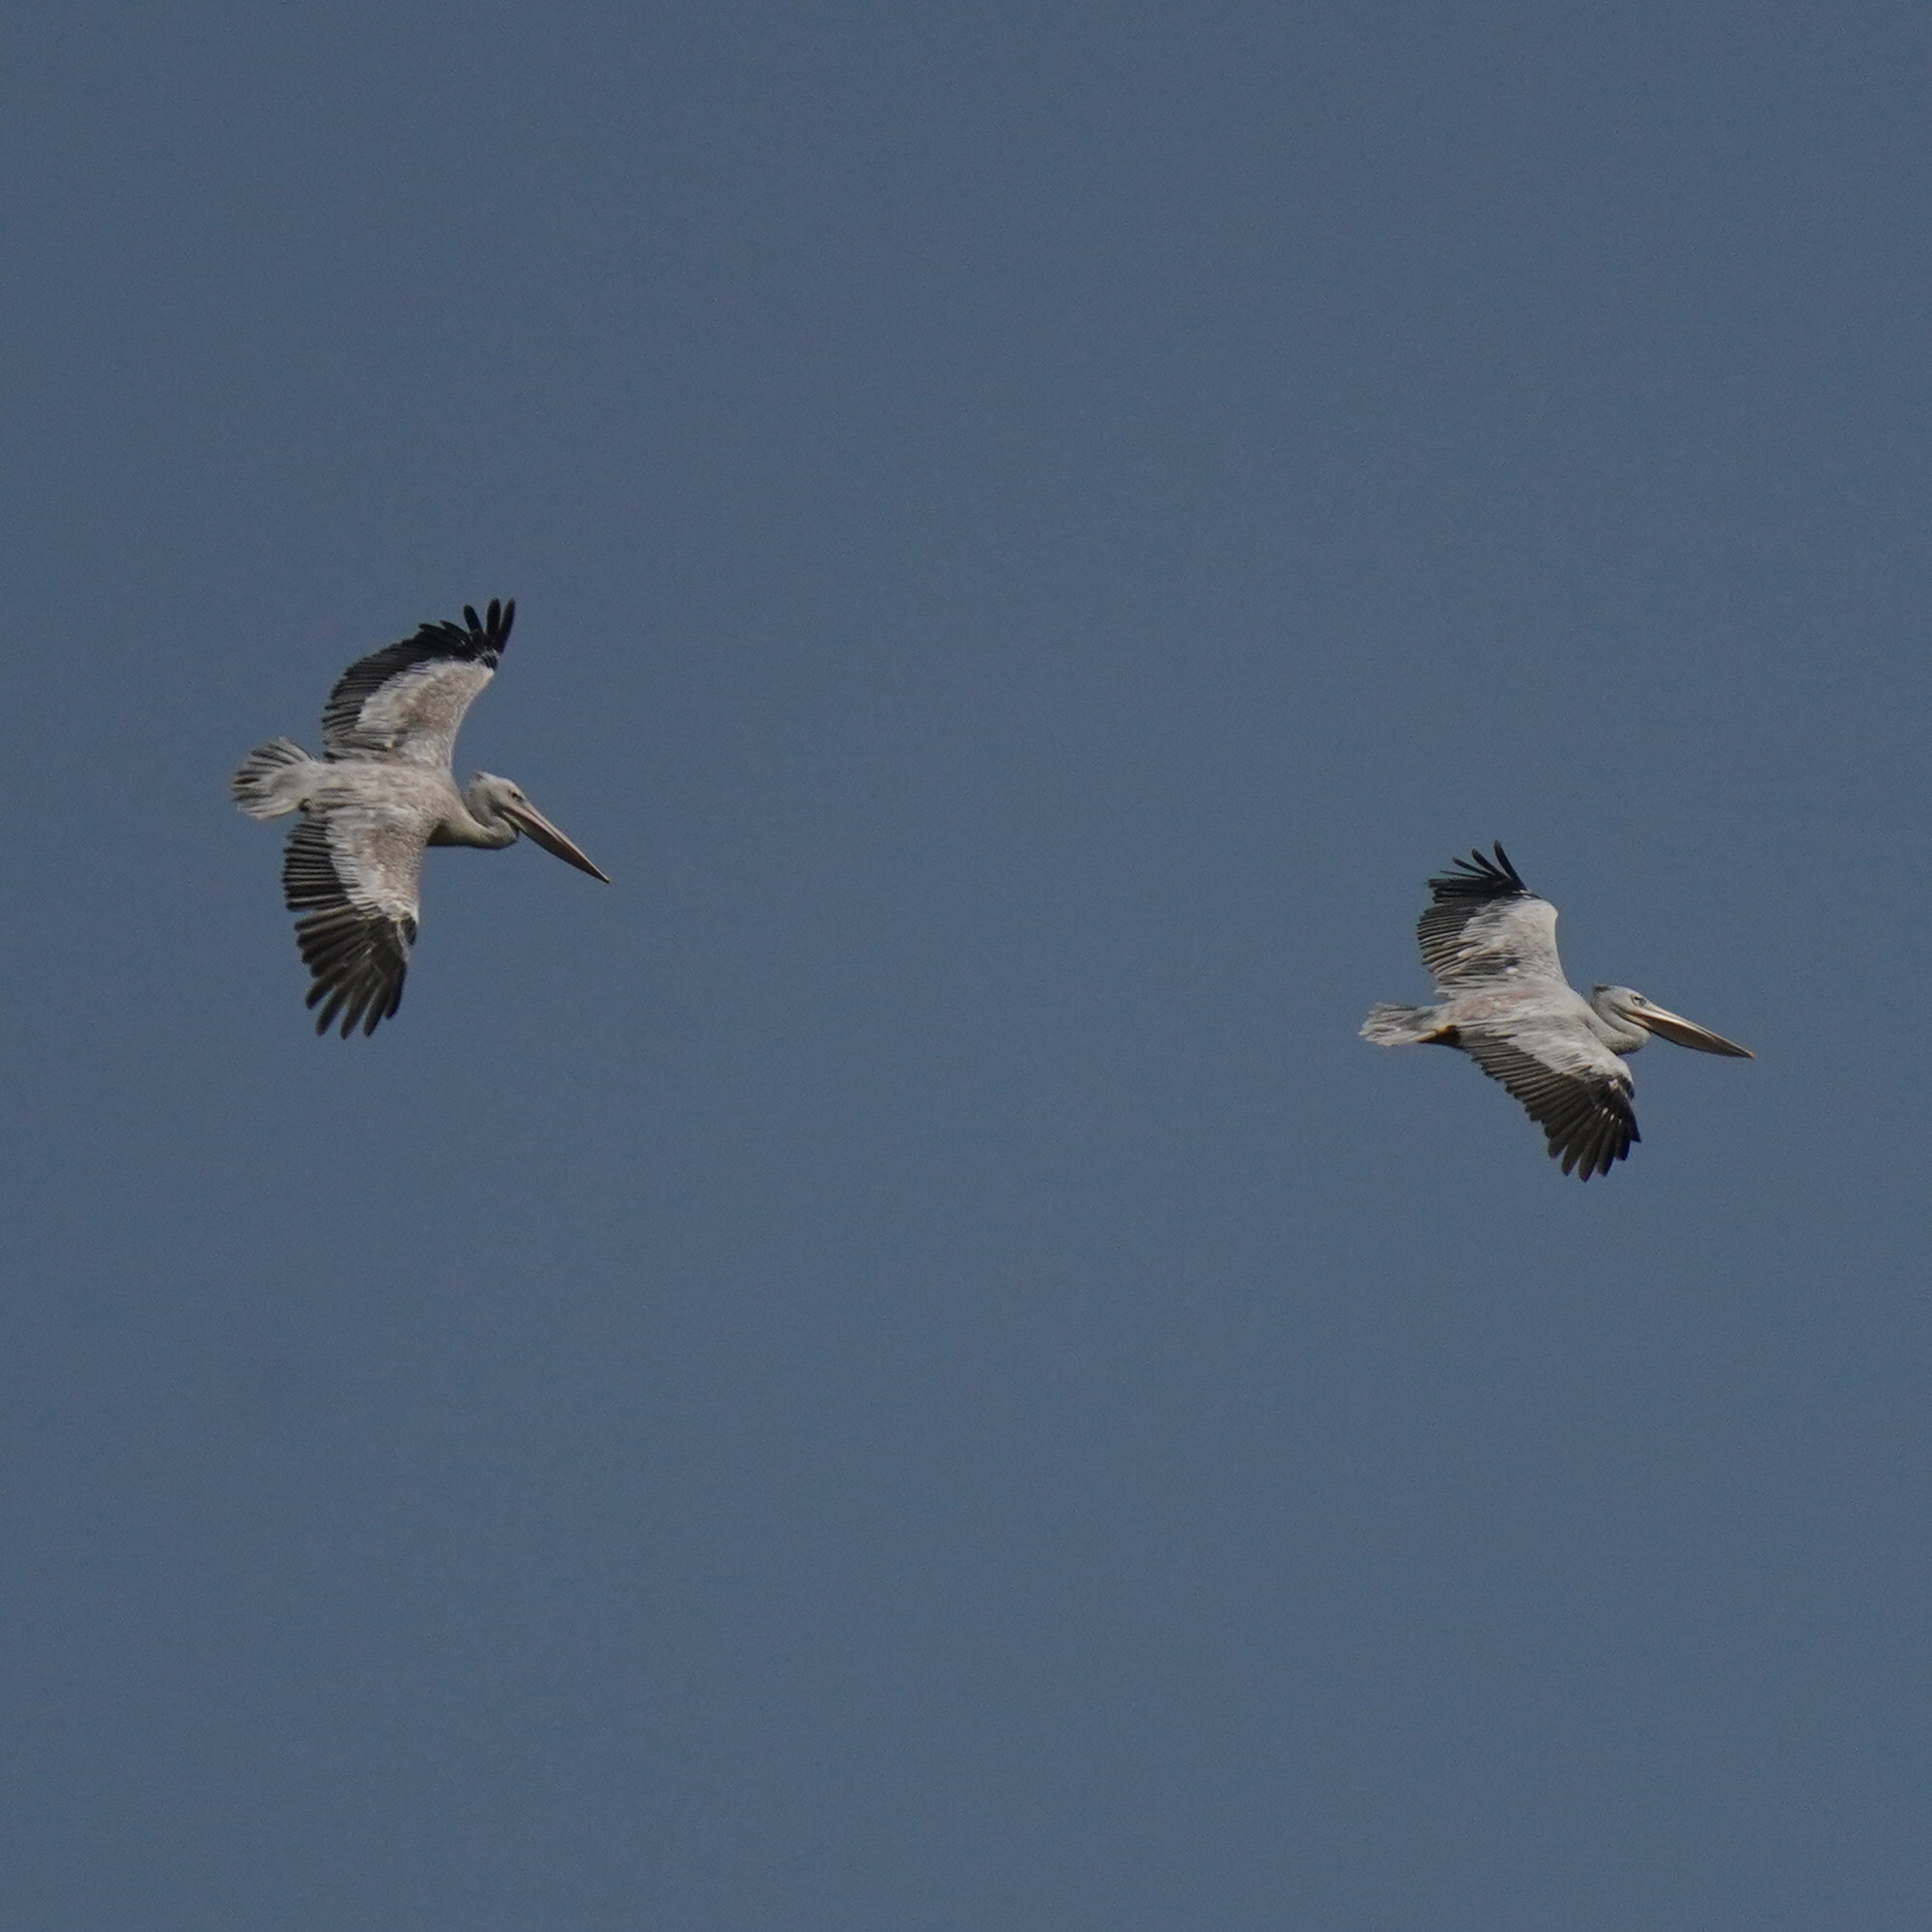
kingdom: Animalia
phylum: Chordata
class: Aves
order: Pelecaniformes
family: Pelecanidae
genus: Pelecanus
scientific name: Pelecanus rufescens
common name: Pink-backed pelican
